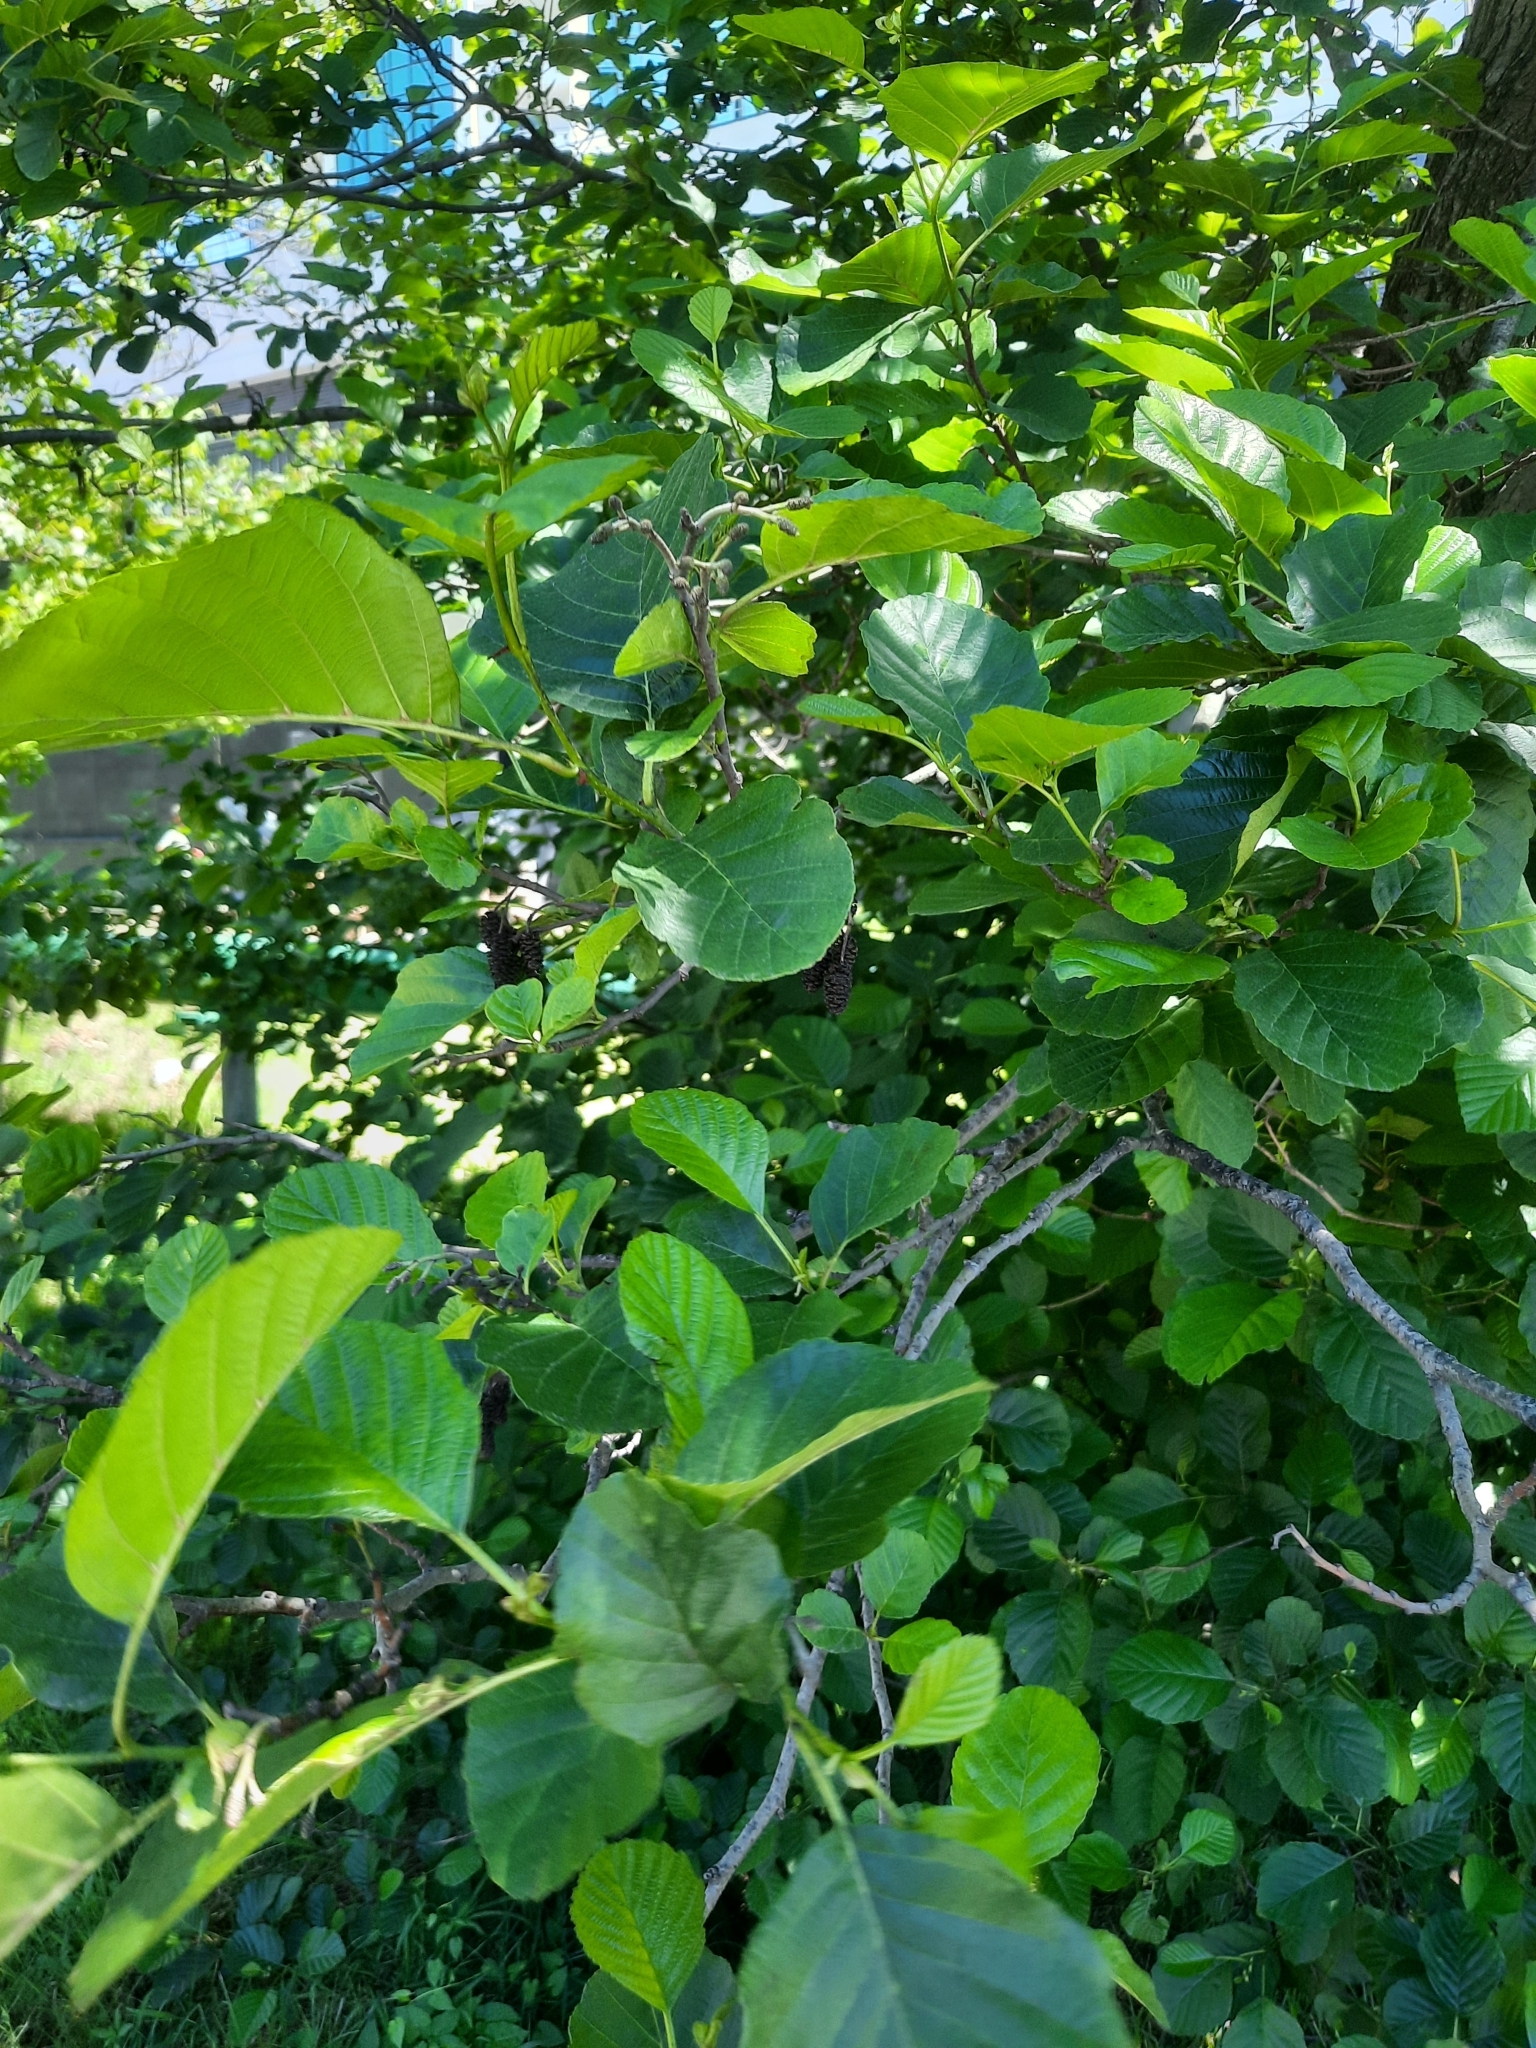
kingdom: Plantae
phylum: Tracheophyta
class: Magnoliopsida
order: Fagales
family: Betulaceae
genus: Alnus
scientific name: Alnus glutinosa
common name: Black alder
